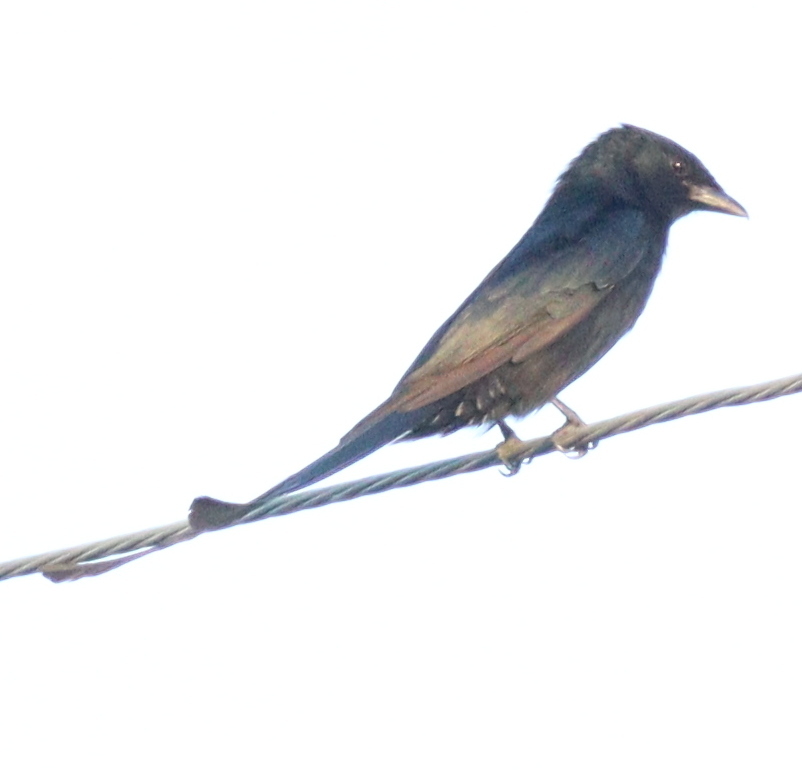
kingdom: Animalia
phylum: Chordata
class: Aves
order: Passeriformes
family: Dicruridae
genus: Dicrurus
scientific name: Dicrurus macrocercus
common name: Black drongo
